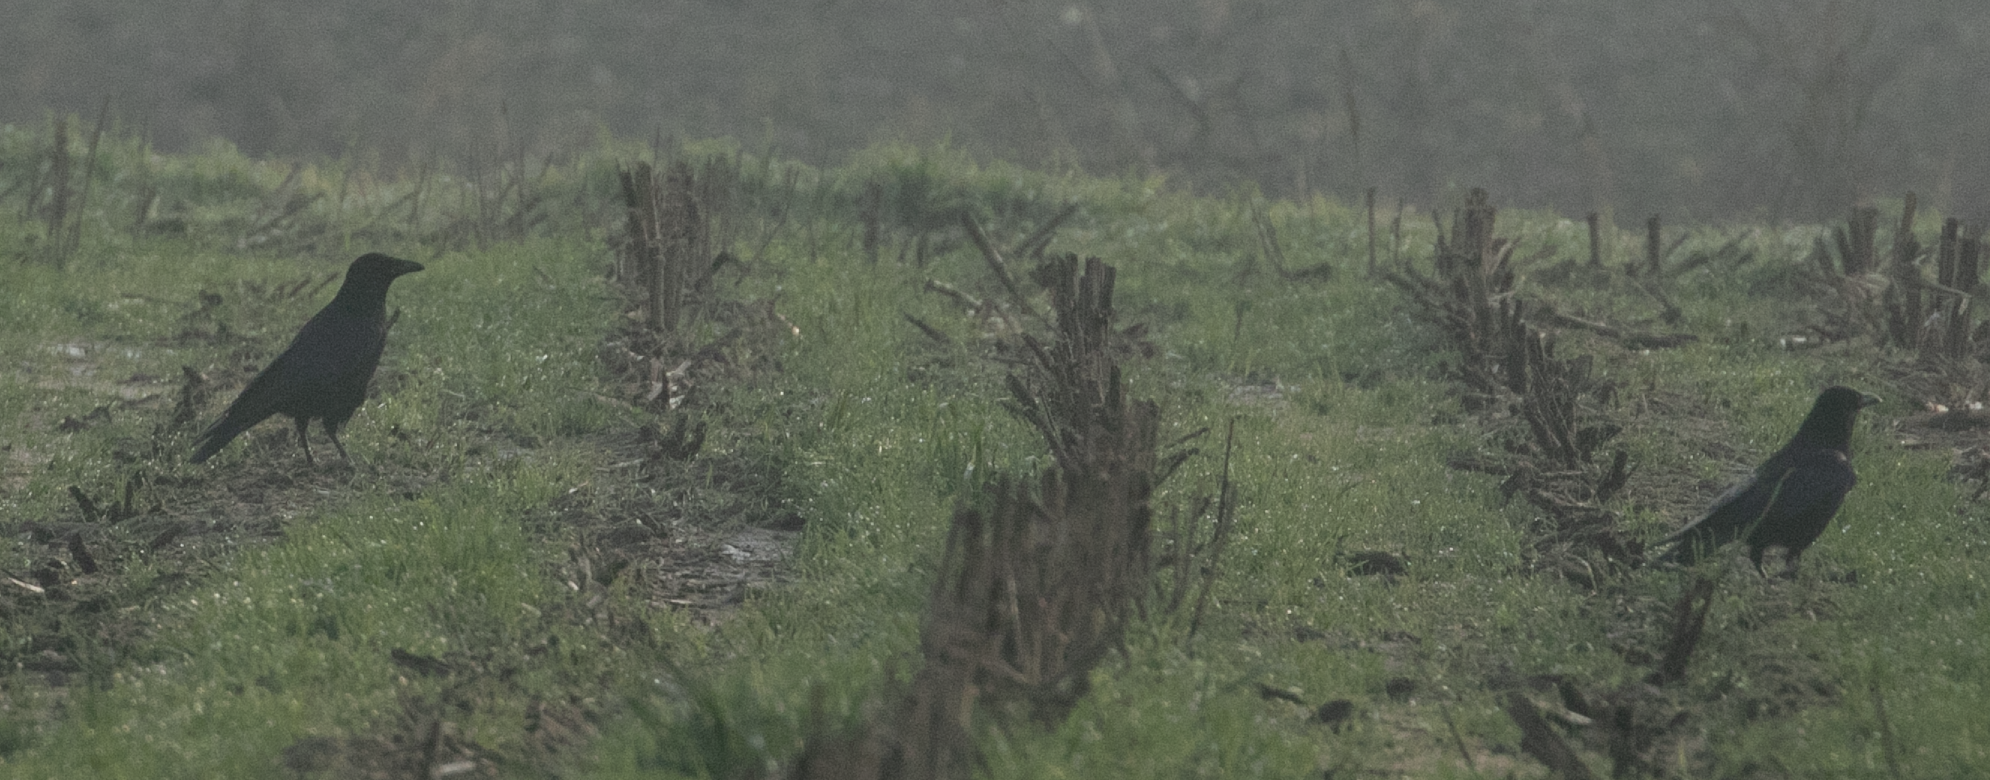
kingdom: Animalia
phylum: Chordata
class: Aves
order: Passeriformes
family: Corvidae
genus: Corvus
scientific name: Corvus corone
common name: Carrion crow
